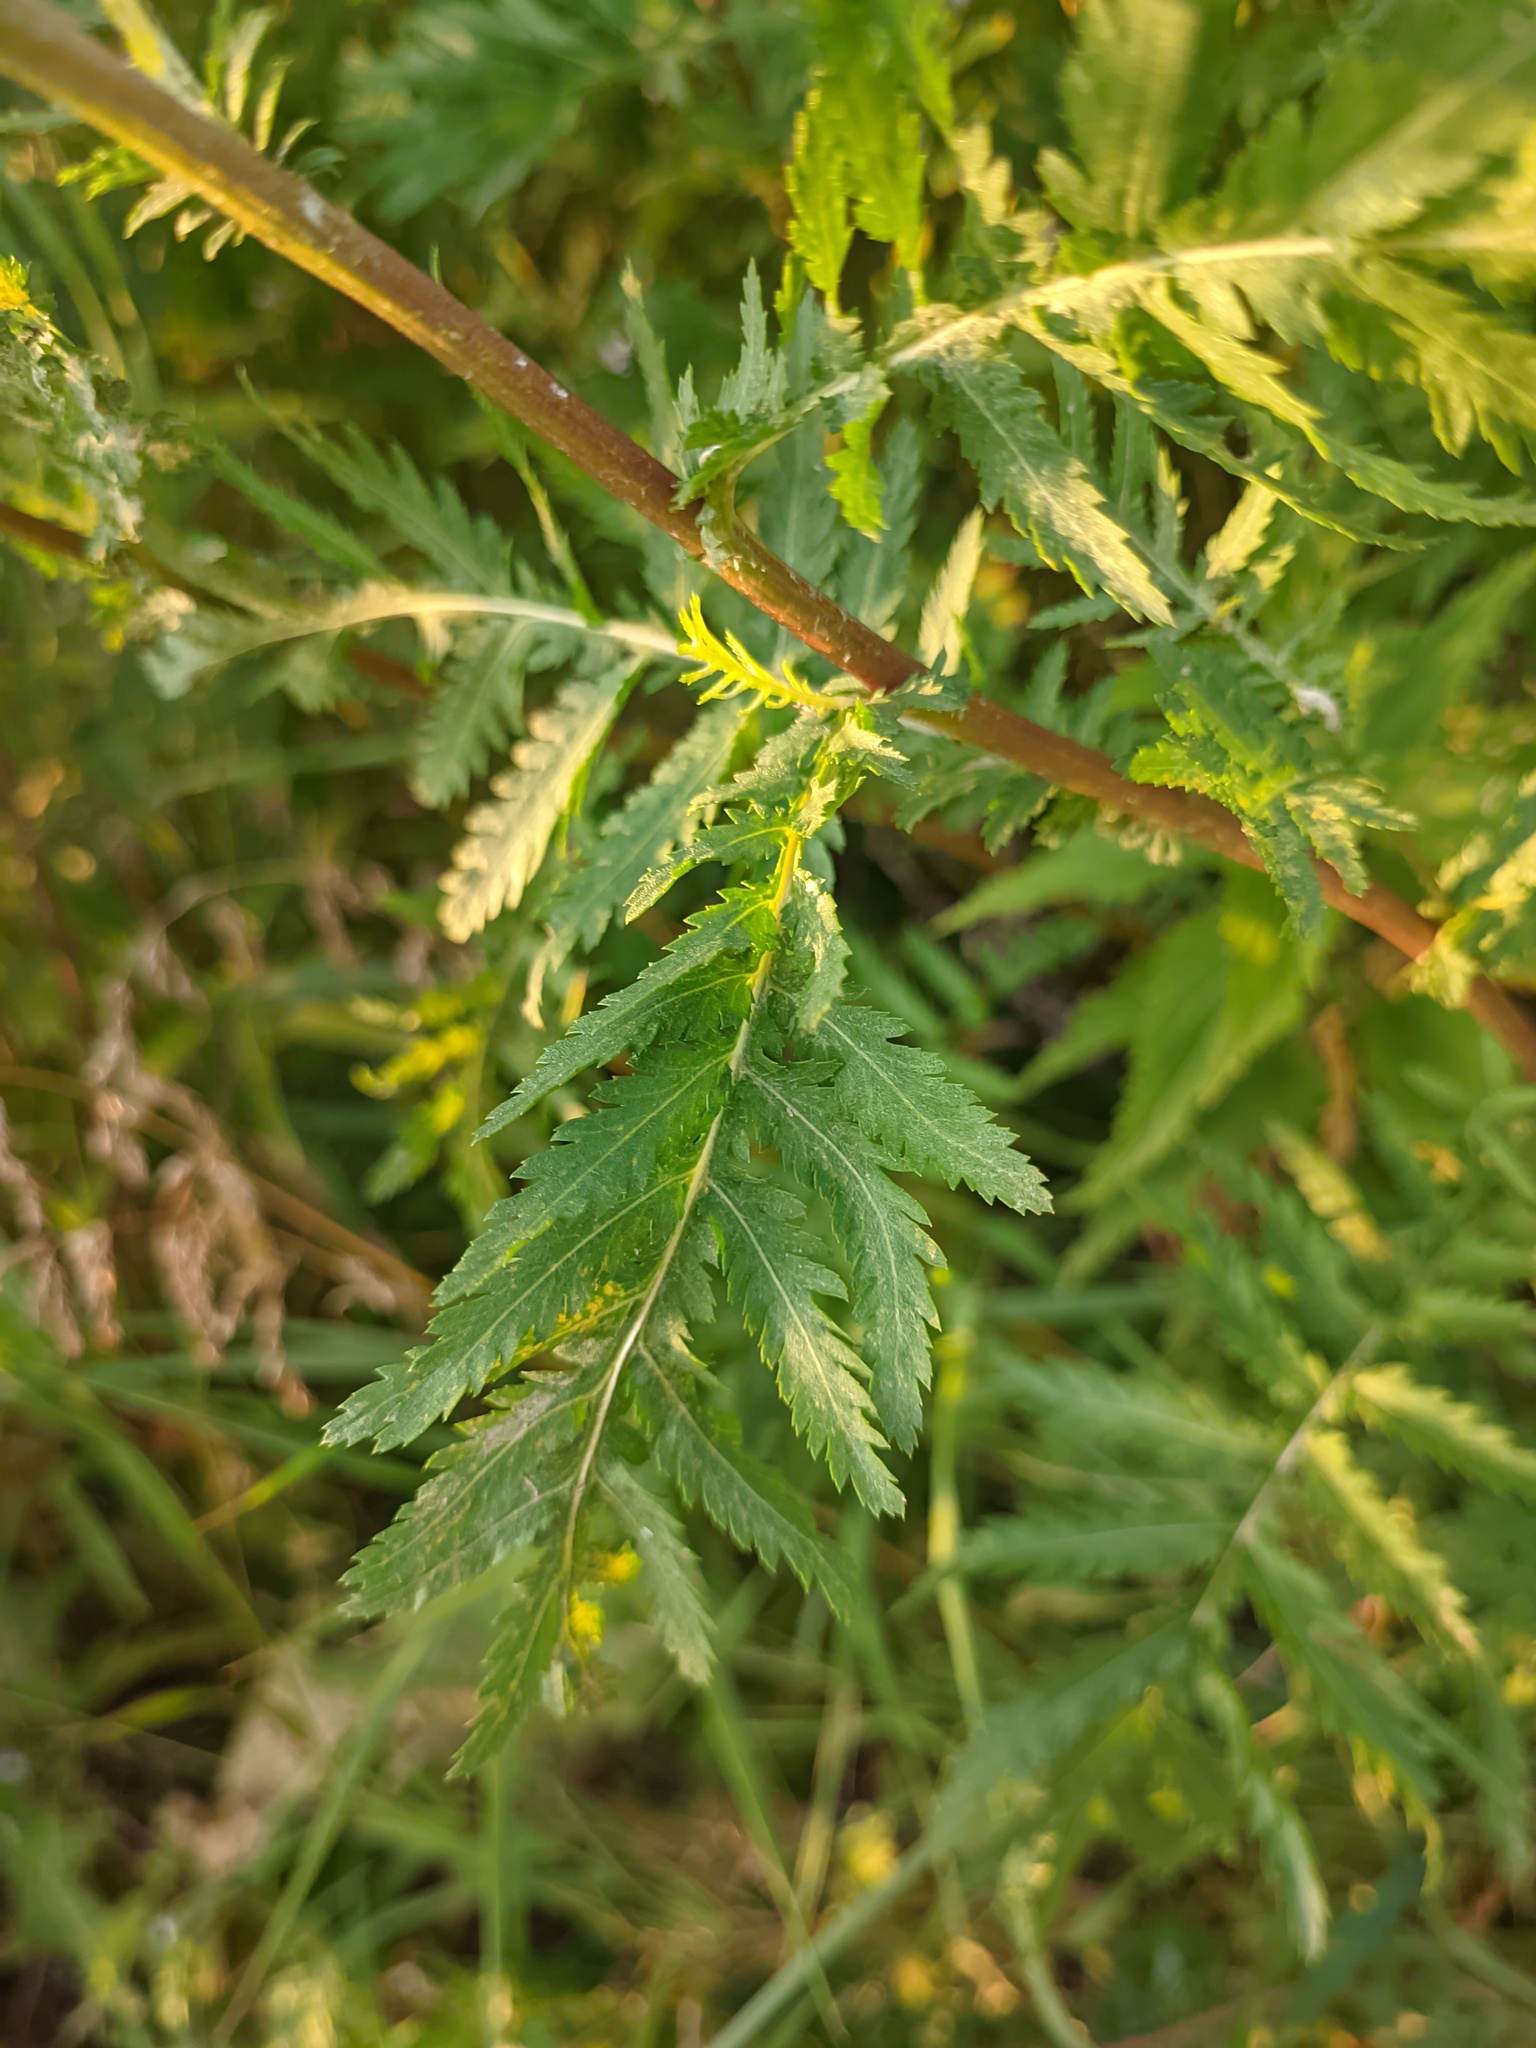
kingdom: Plantae
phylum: Tracheophyta
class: Magnoliopsida
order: Asterales
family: Asteraceae
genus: Tanacetum
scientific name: Tanacetum vulgare
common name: Common tansy
